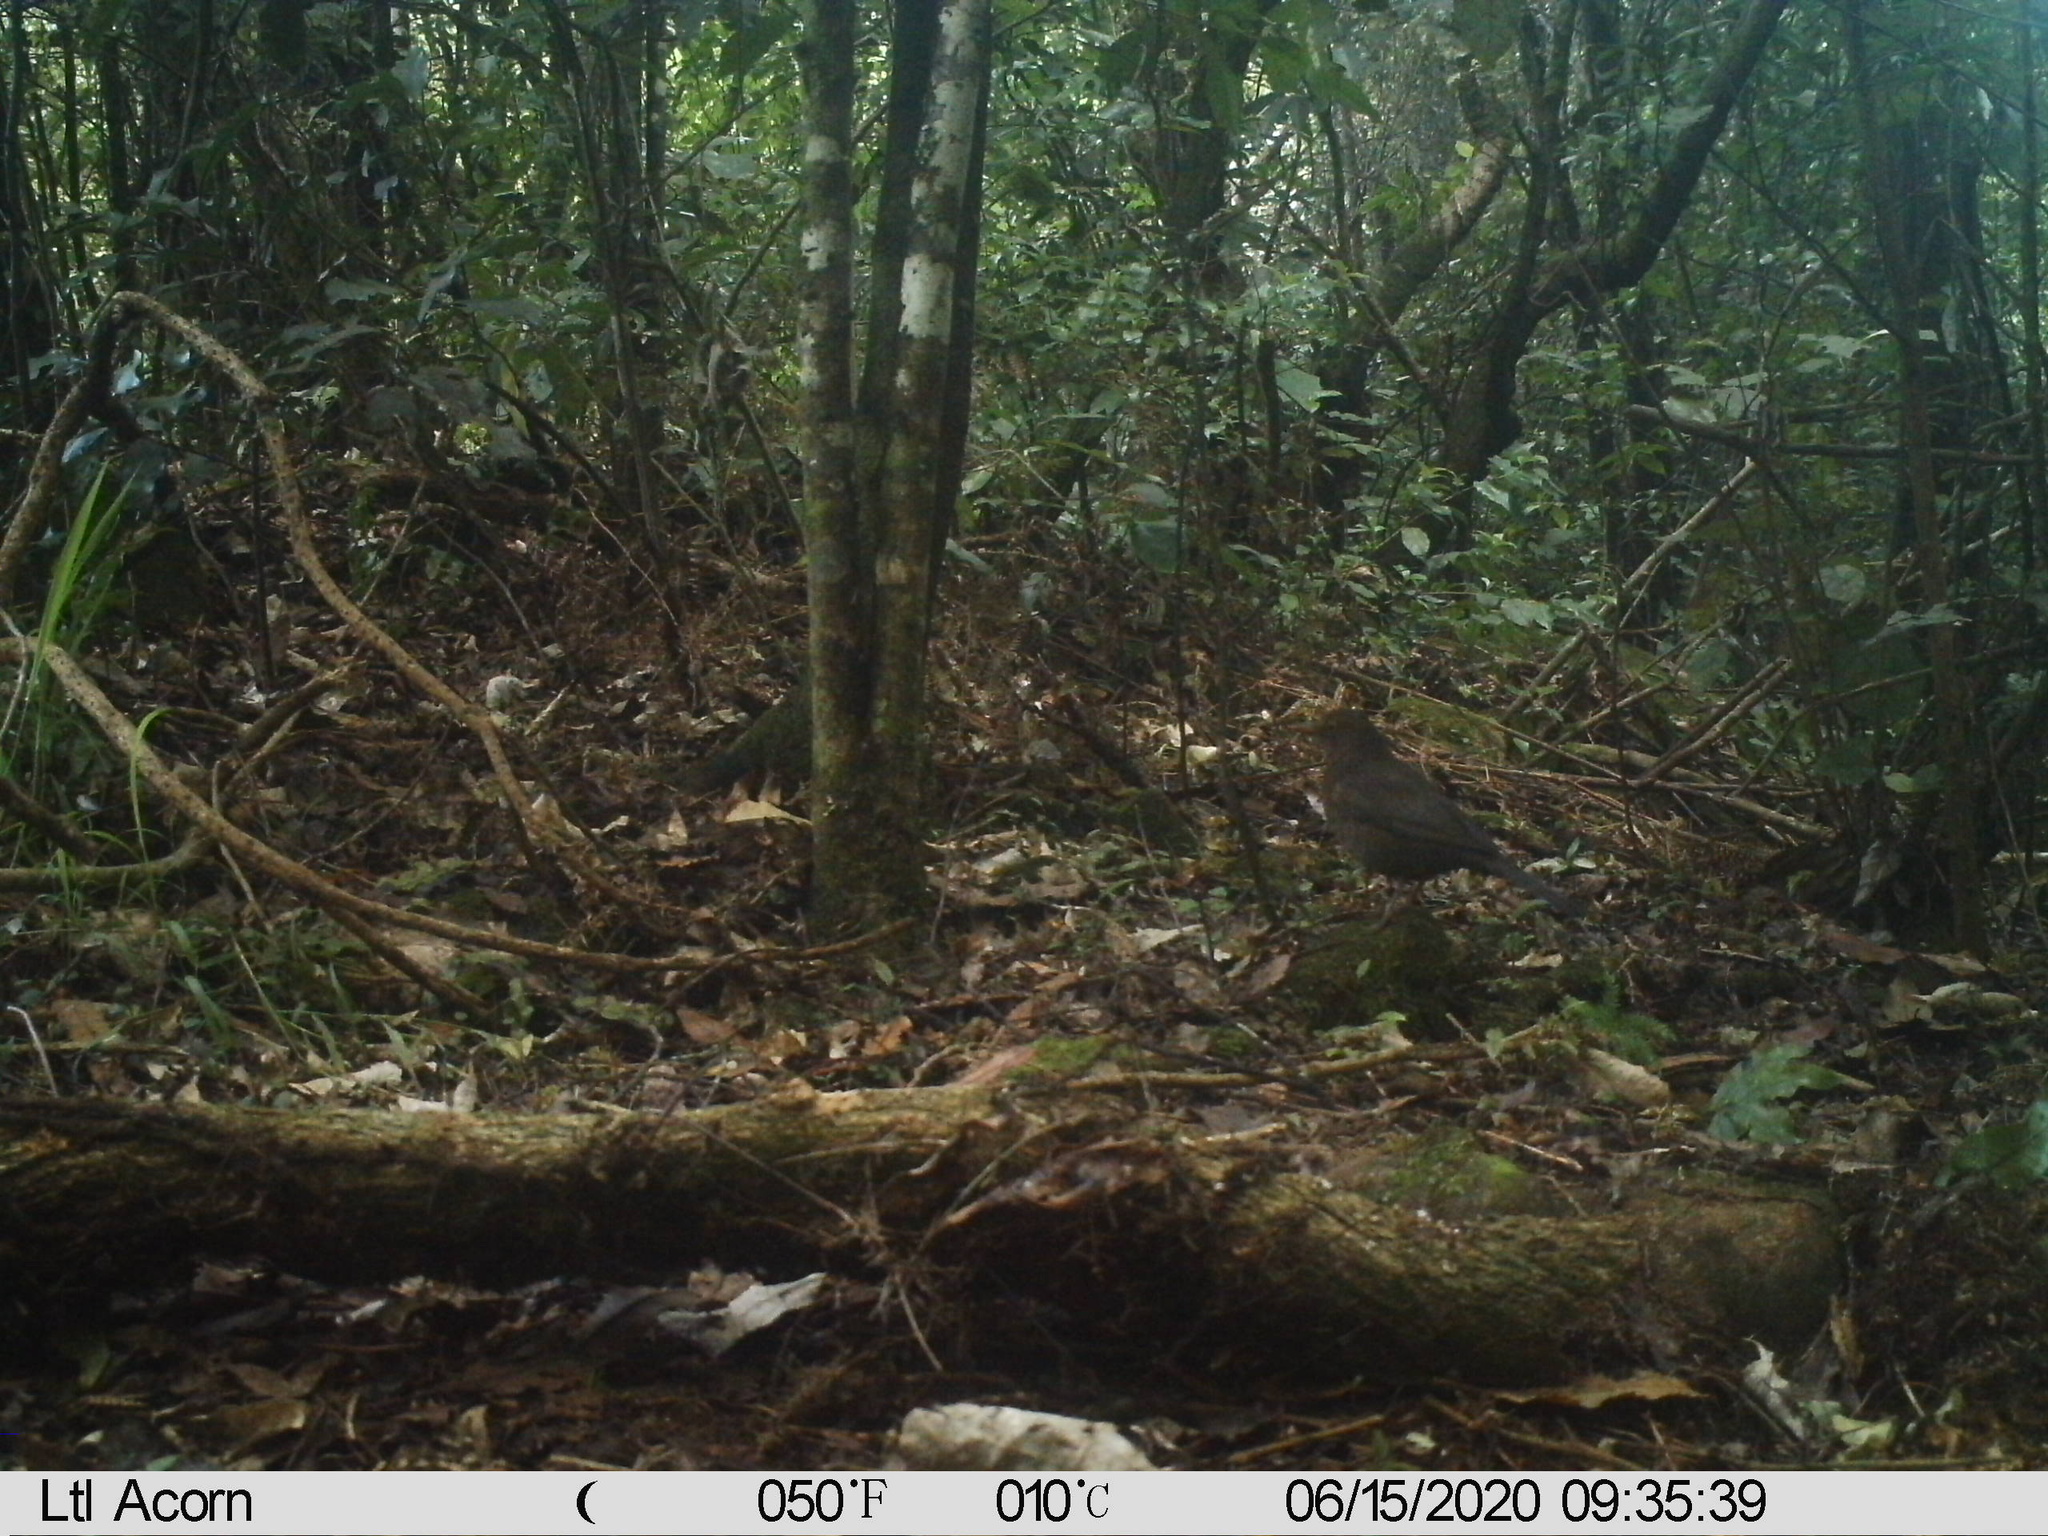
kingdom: Animalia
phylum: Chordata
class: Aves
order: Passeriformes
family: Turdidae
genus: Turdus
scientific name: Turdus merula
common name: Common blackbird
